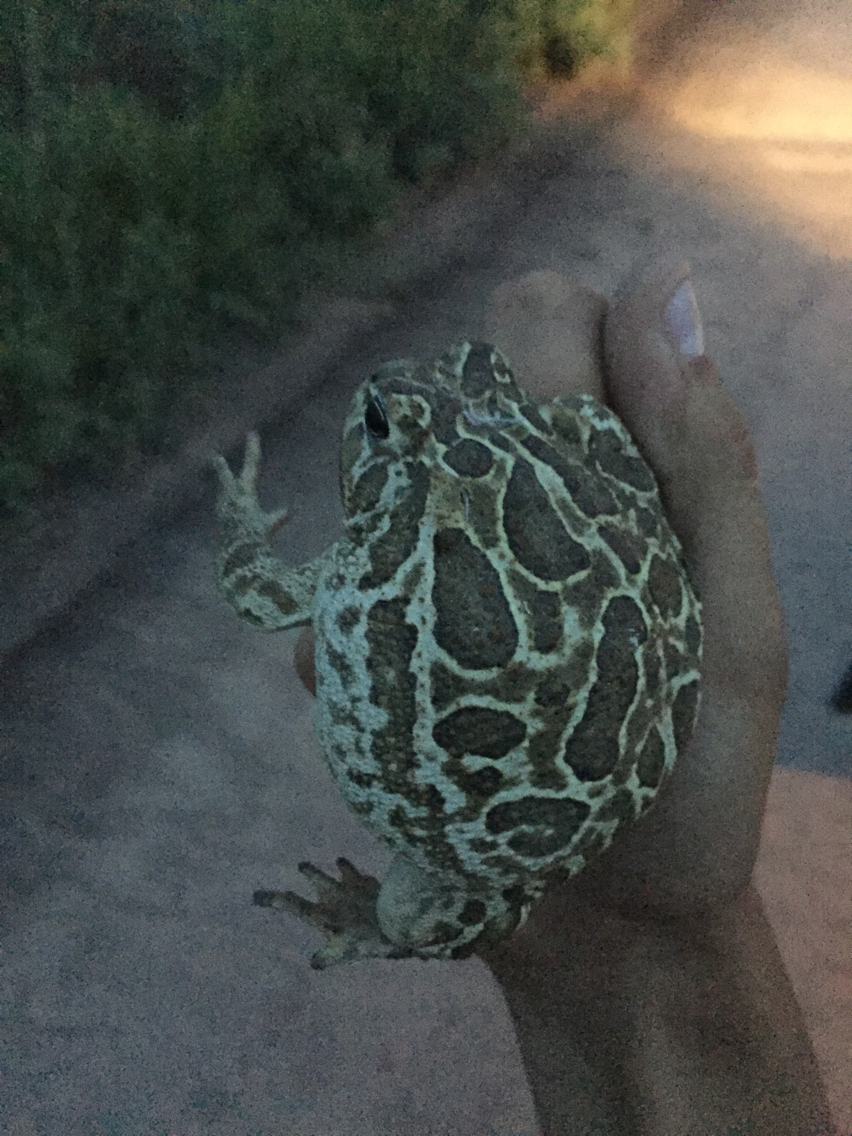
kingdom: Animalia
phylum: Chordata
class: Amphibia
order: Anura
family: Bufonidae
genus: Anaxyrus
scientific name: Anaxyrus cognatus
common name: Great plains toad
